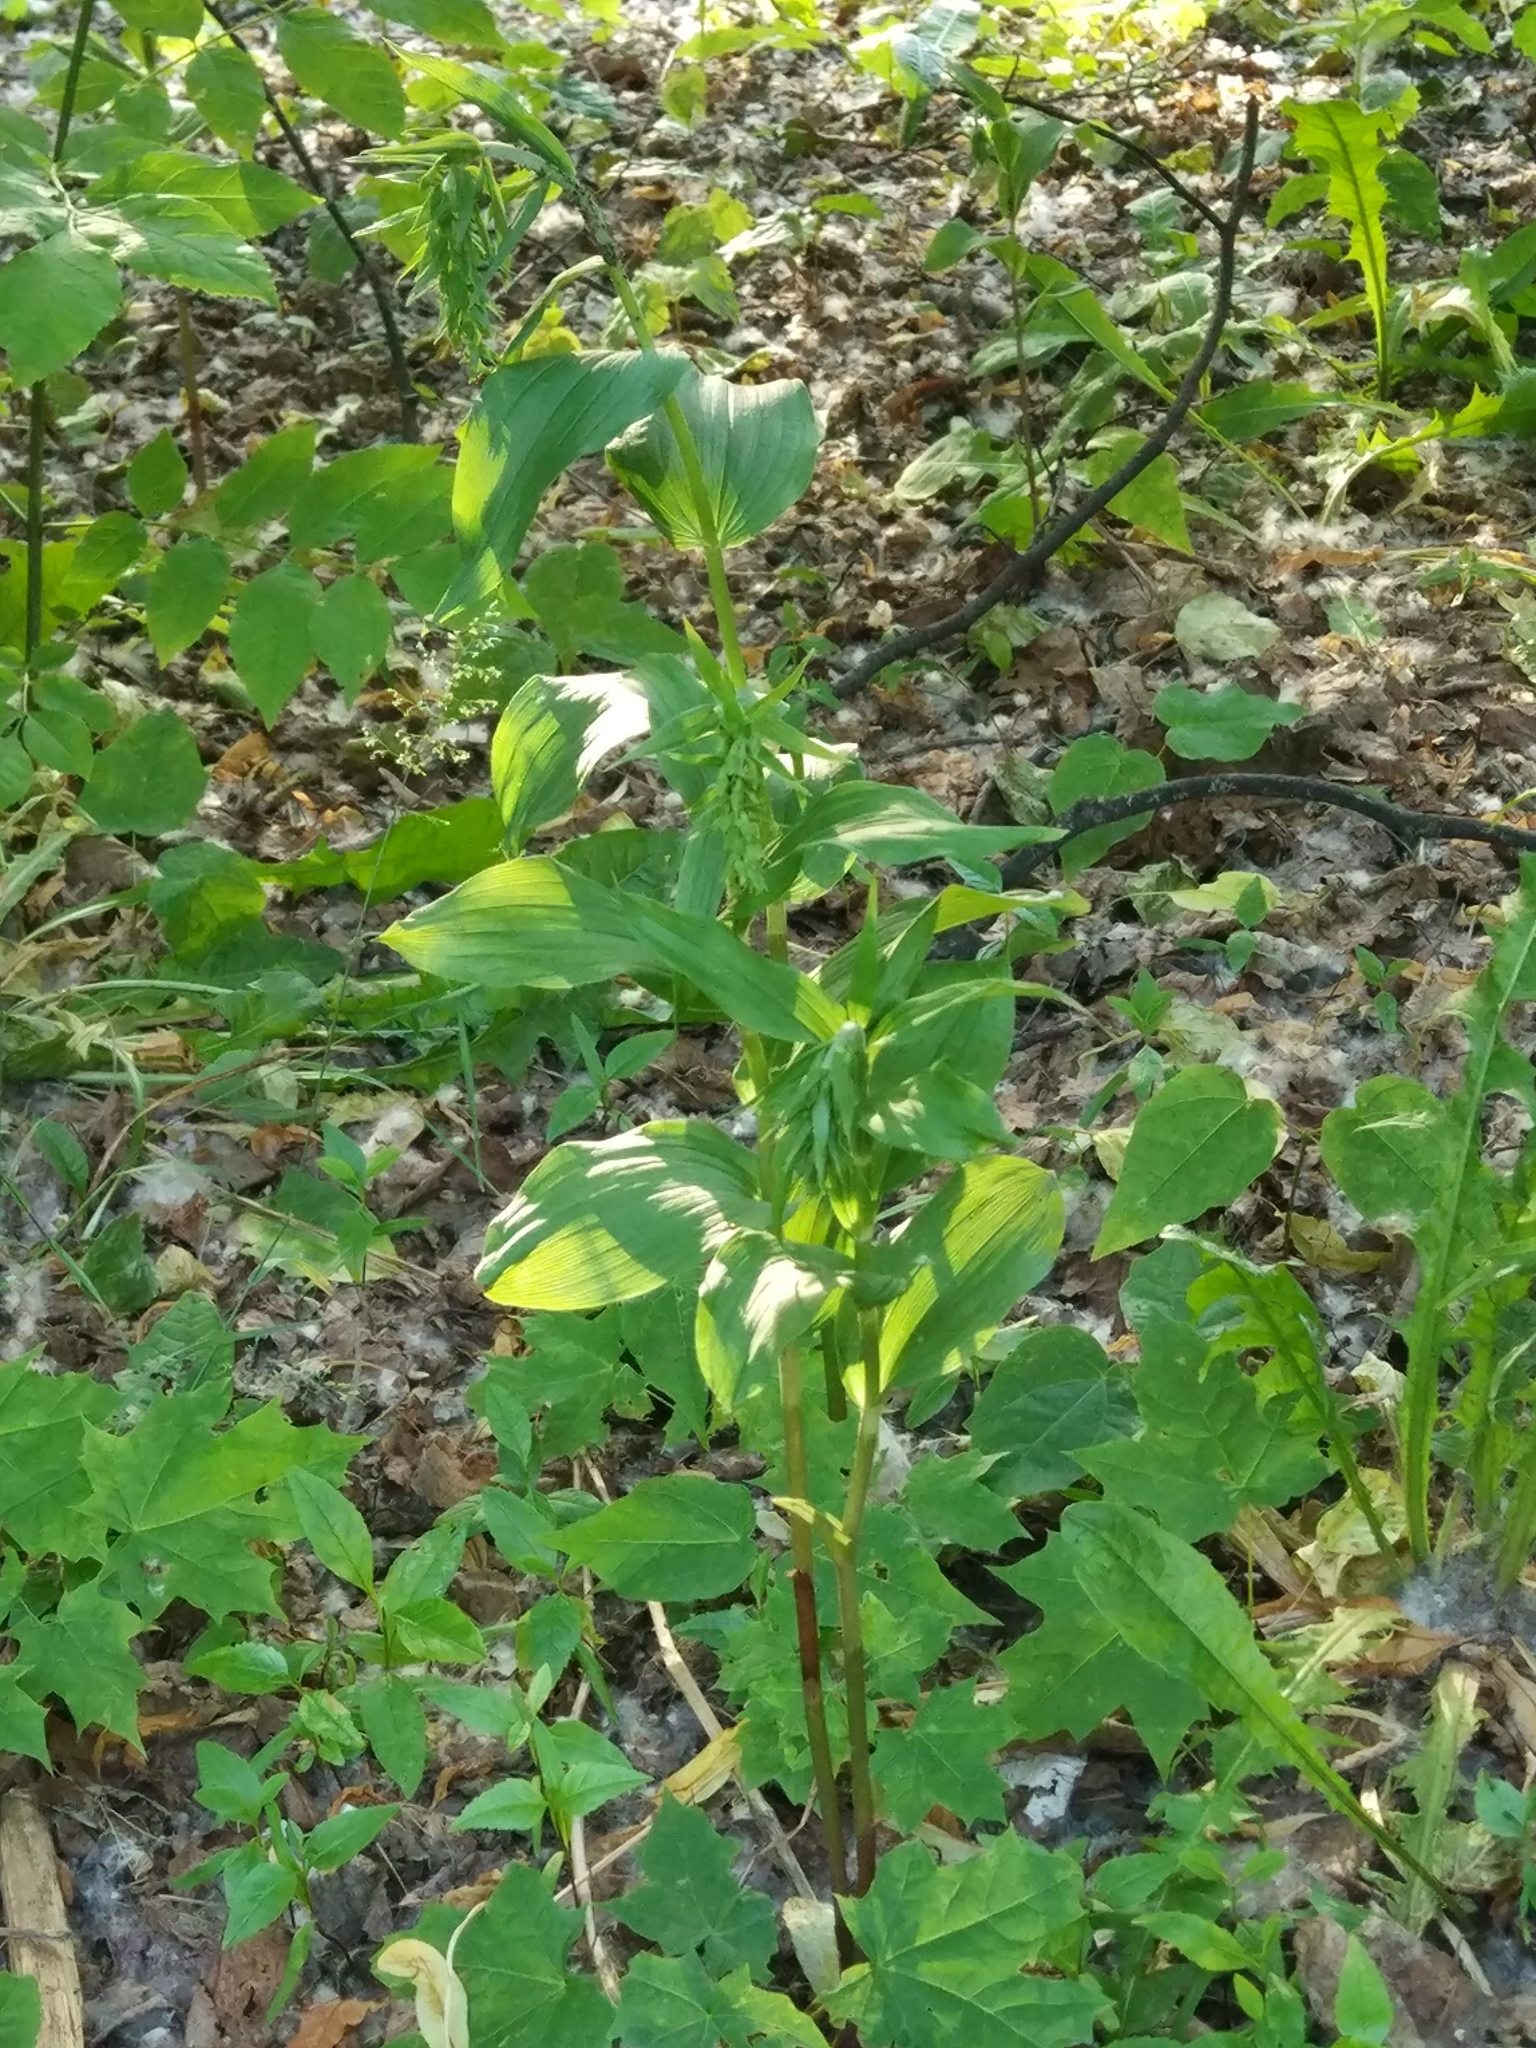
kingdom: Plantae
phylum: Tracheophyta
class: Liliopsida
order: Asparagales
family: Orchidaceae
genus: Epipactis
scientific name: Epipactis helleborine
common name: Broad-leaved helleborine
